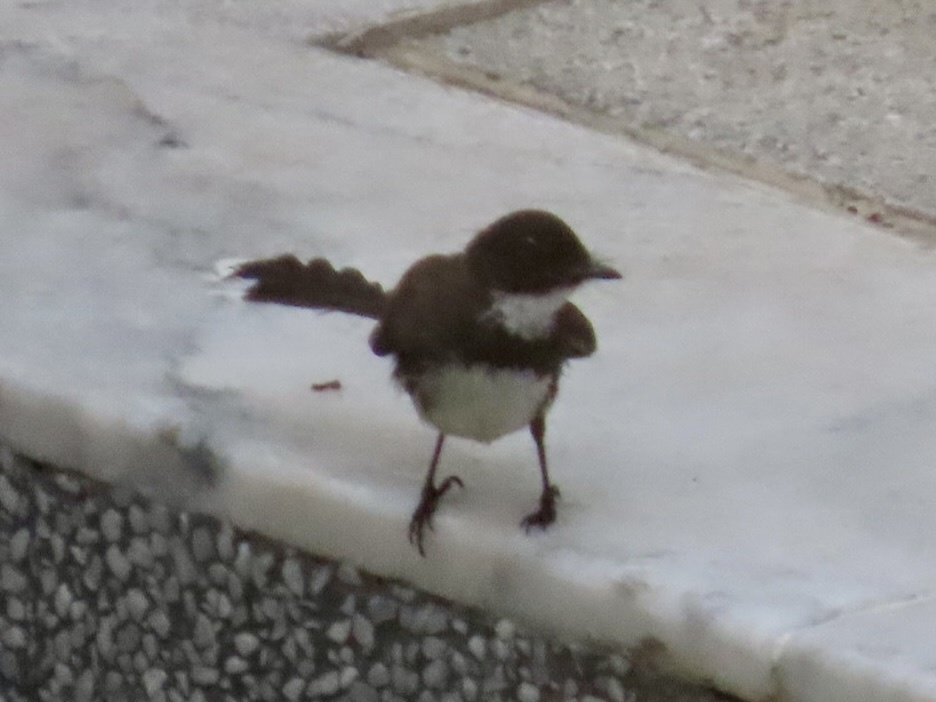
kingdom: Animalia
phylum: Chordata
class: Aves
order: Passeriformes
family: Rhipiduridae
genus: Rhipidura
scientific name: Rhipidura javanica
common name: Pied fantail
